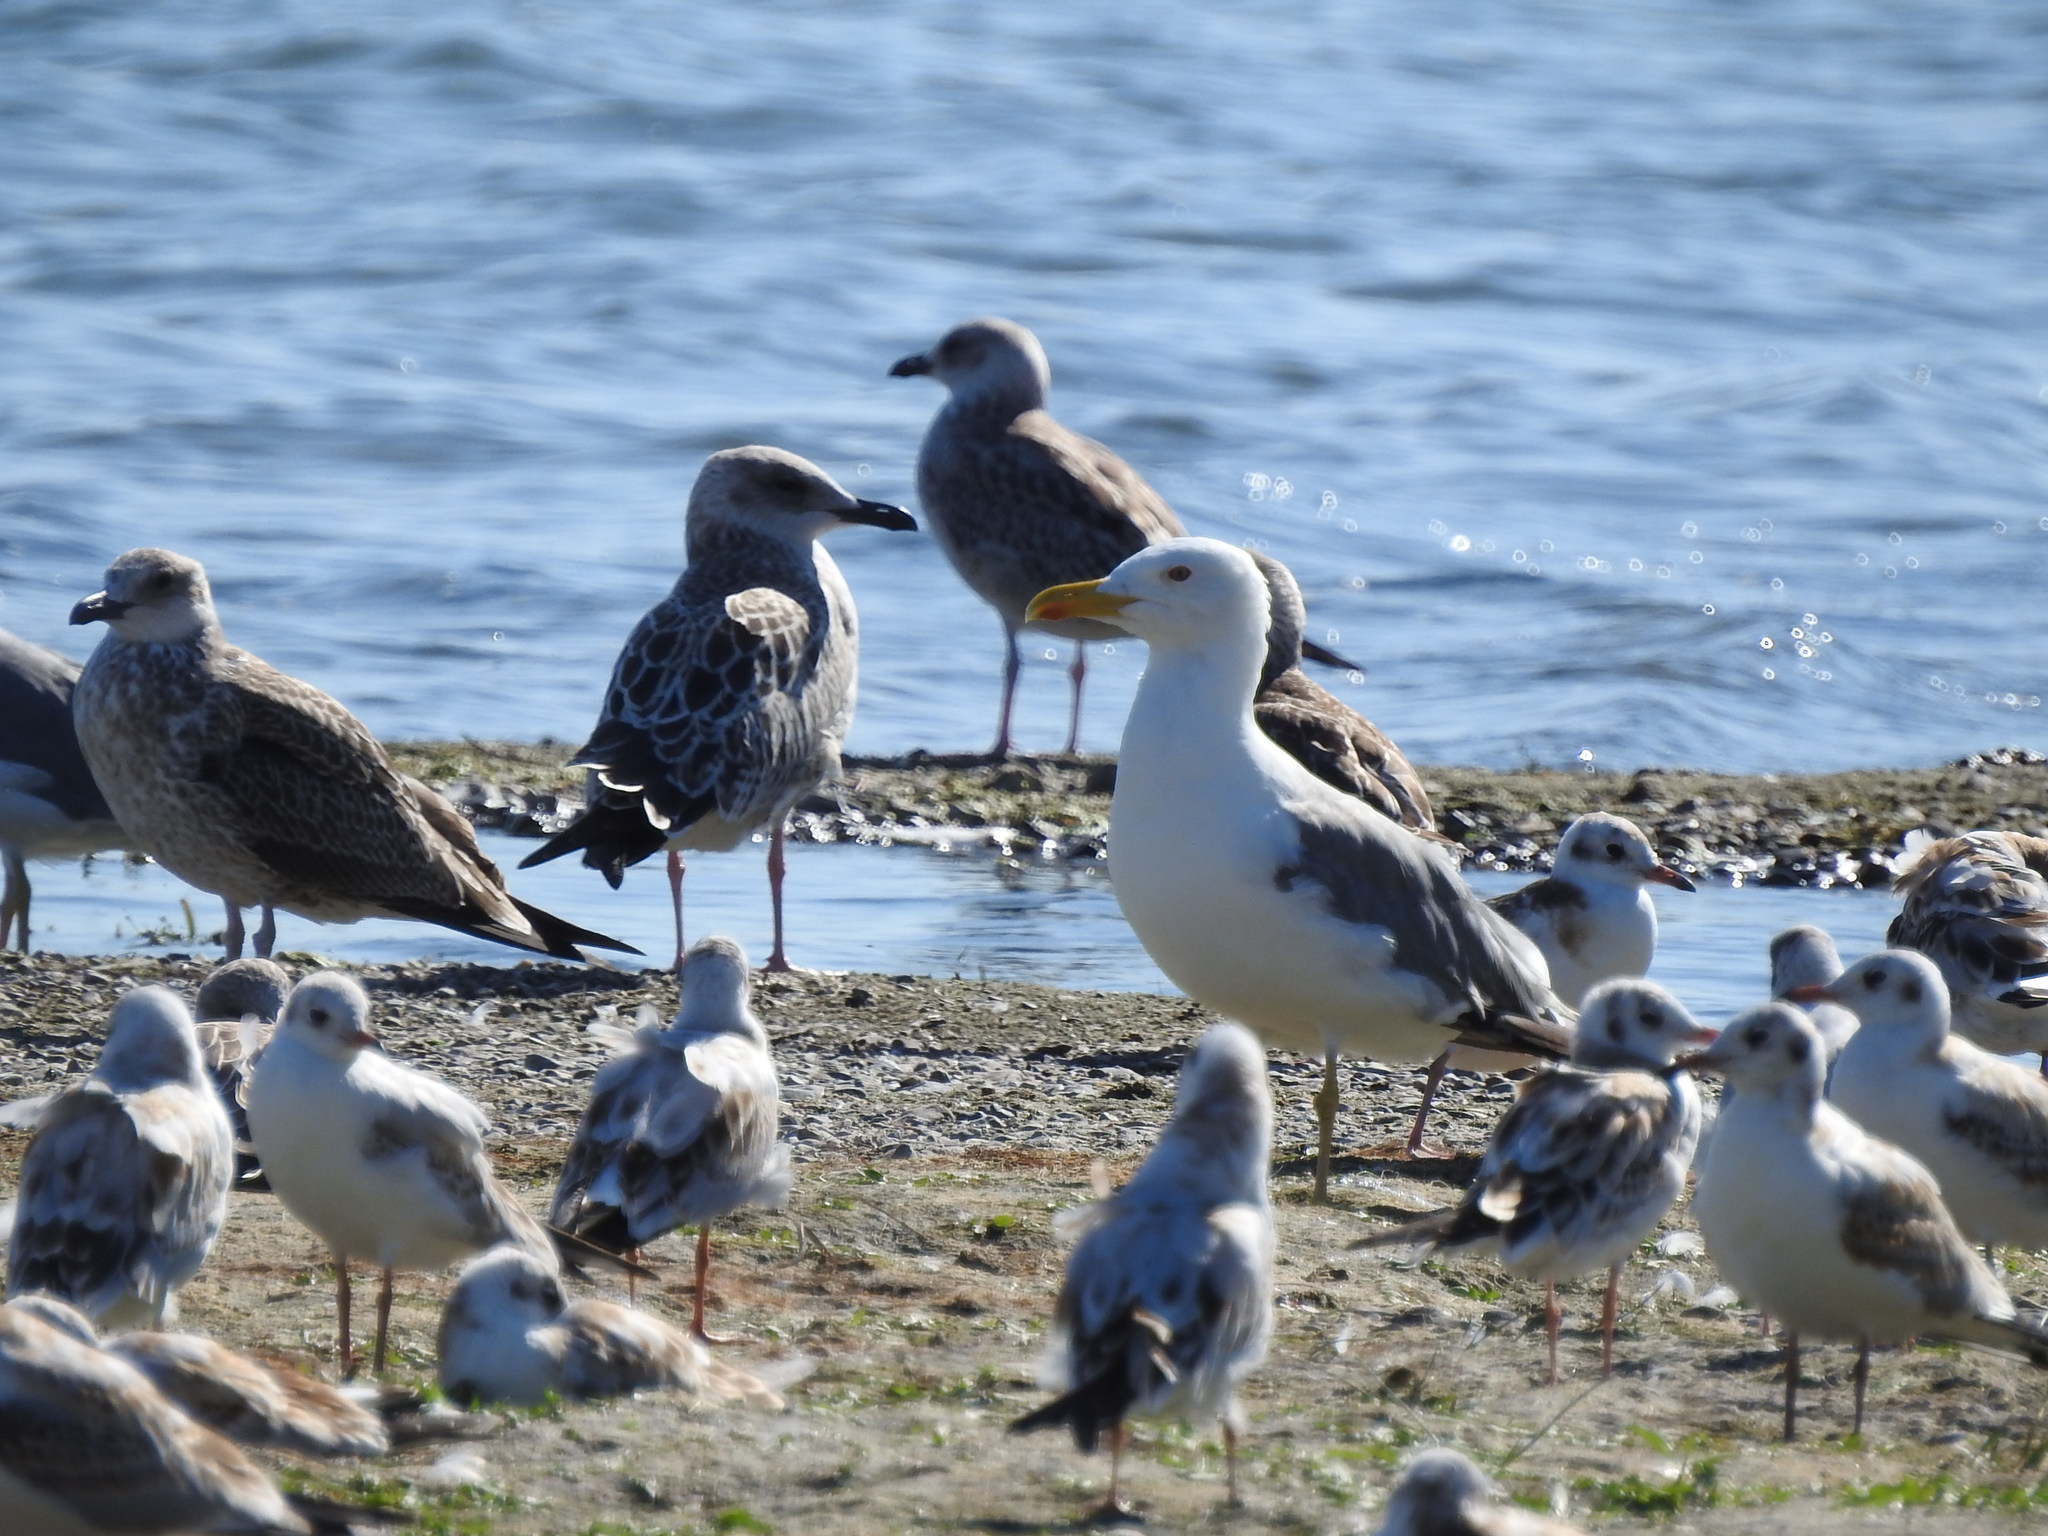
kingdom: Animalia
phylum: Chordata
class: Aves
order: Charadriiformes
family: Laridae
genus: Larus
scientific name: Larus fuscus
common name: Lesser black-backed gull
